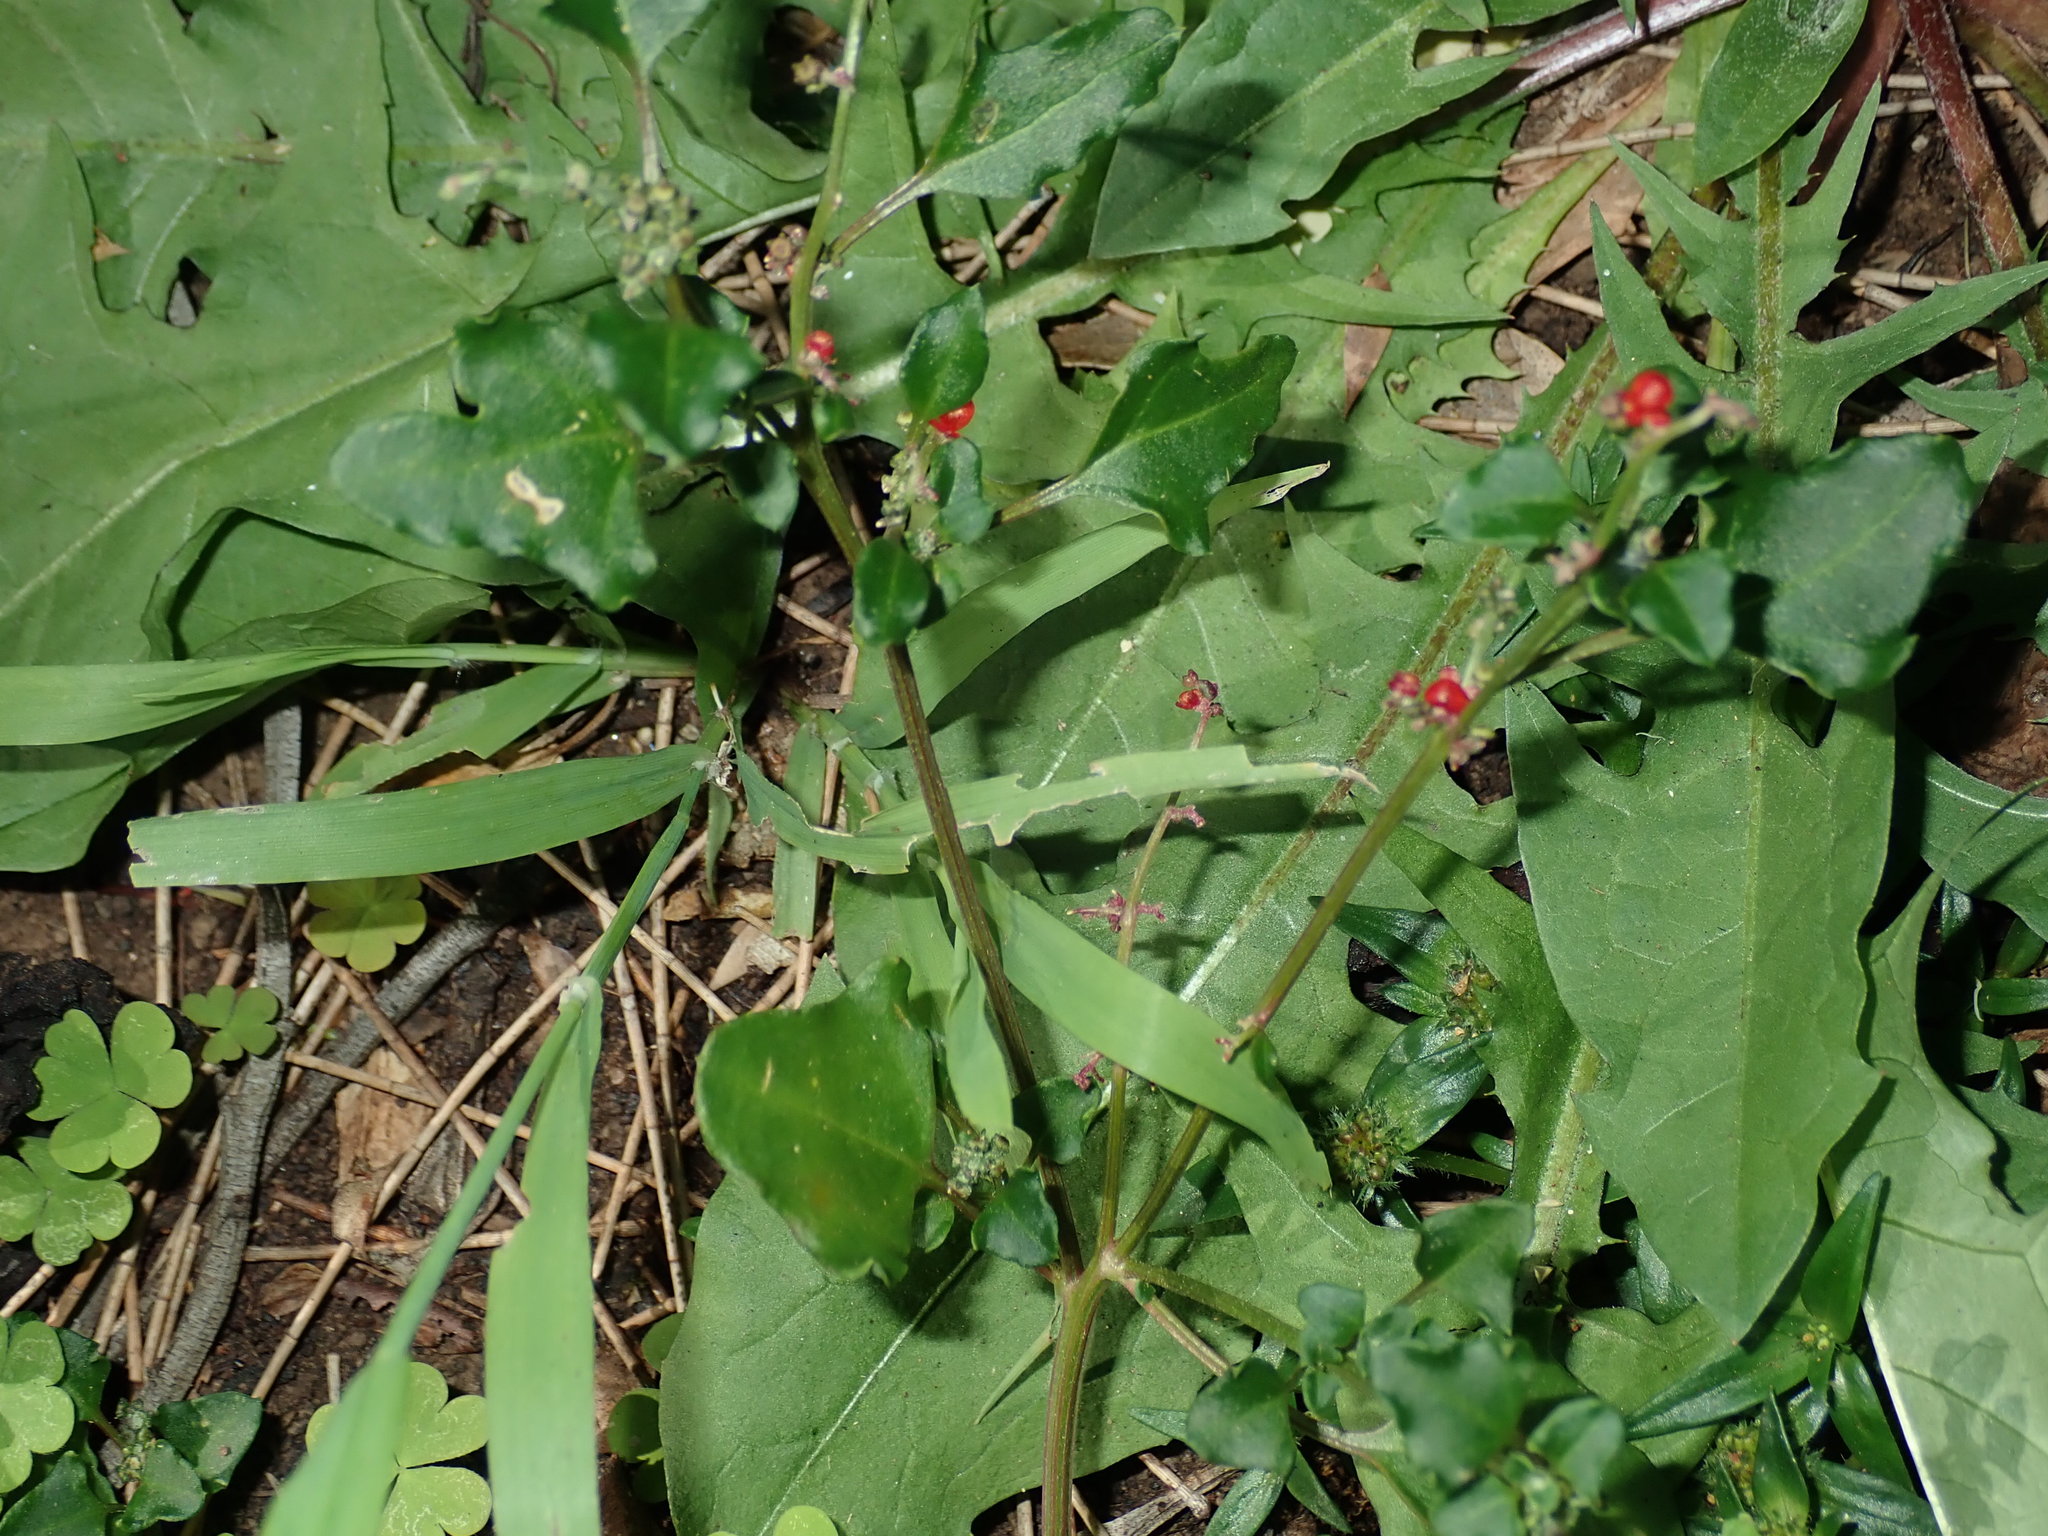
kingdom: Plantae
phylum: Tracheophyta
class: Magnoliopsida
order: Caryophyllales
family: Amaranthaceae
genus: Chenopodium
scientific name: Chenopodium robertianum
